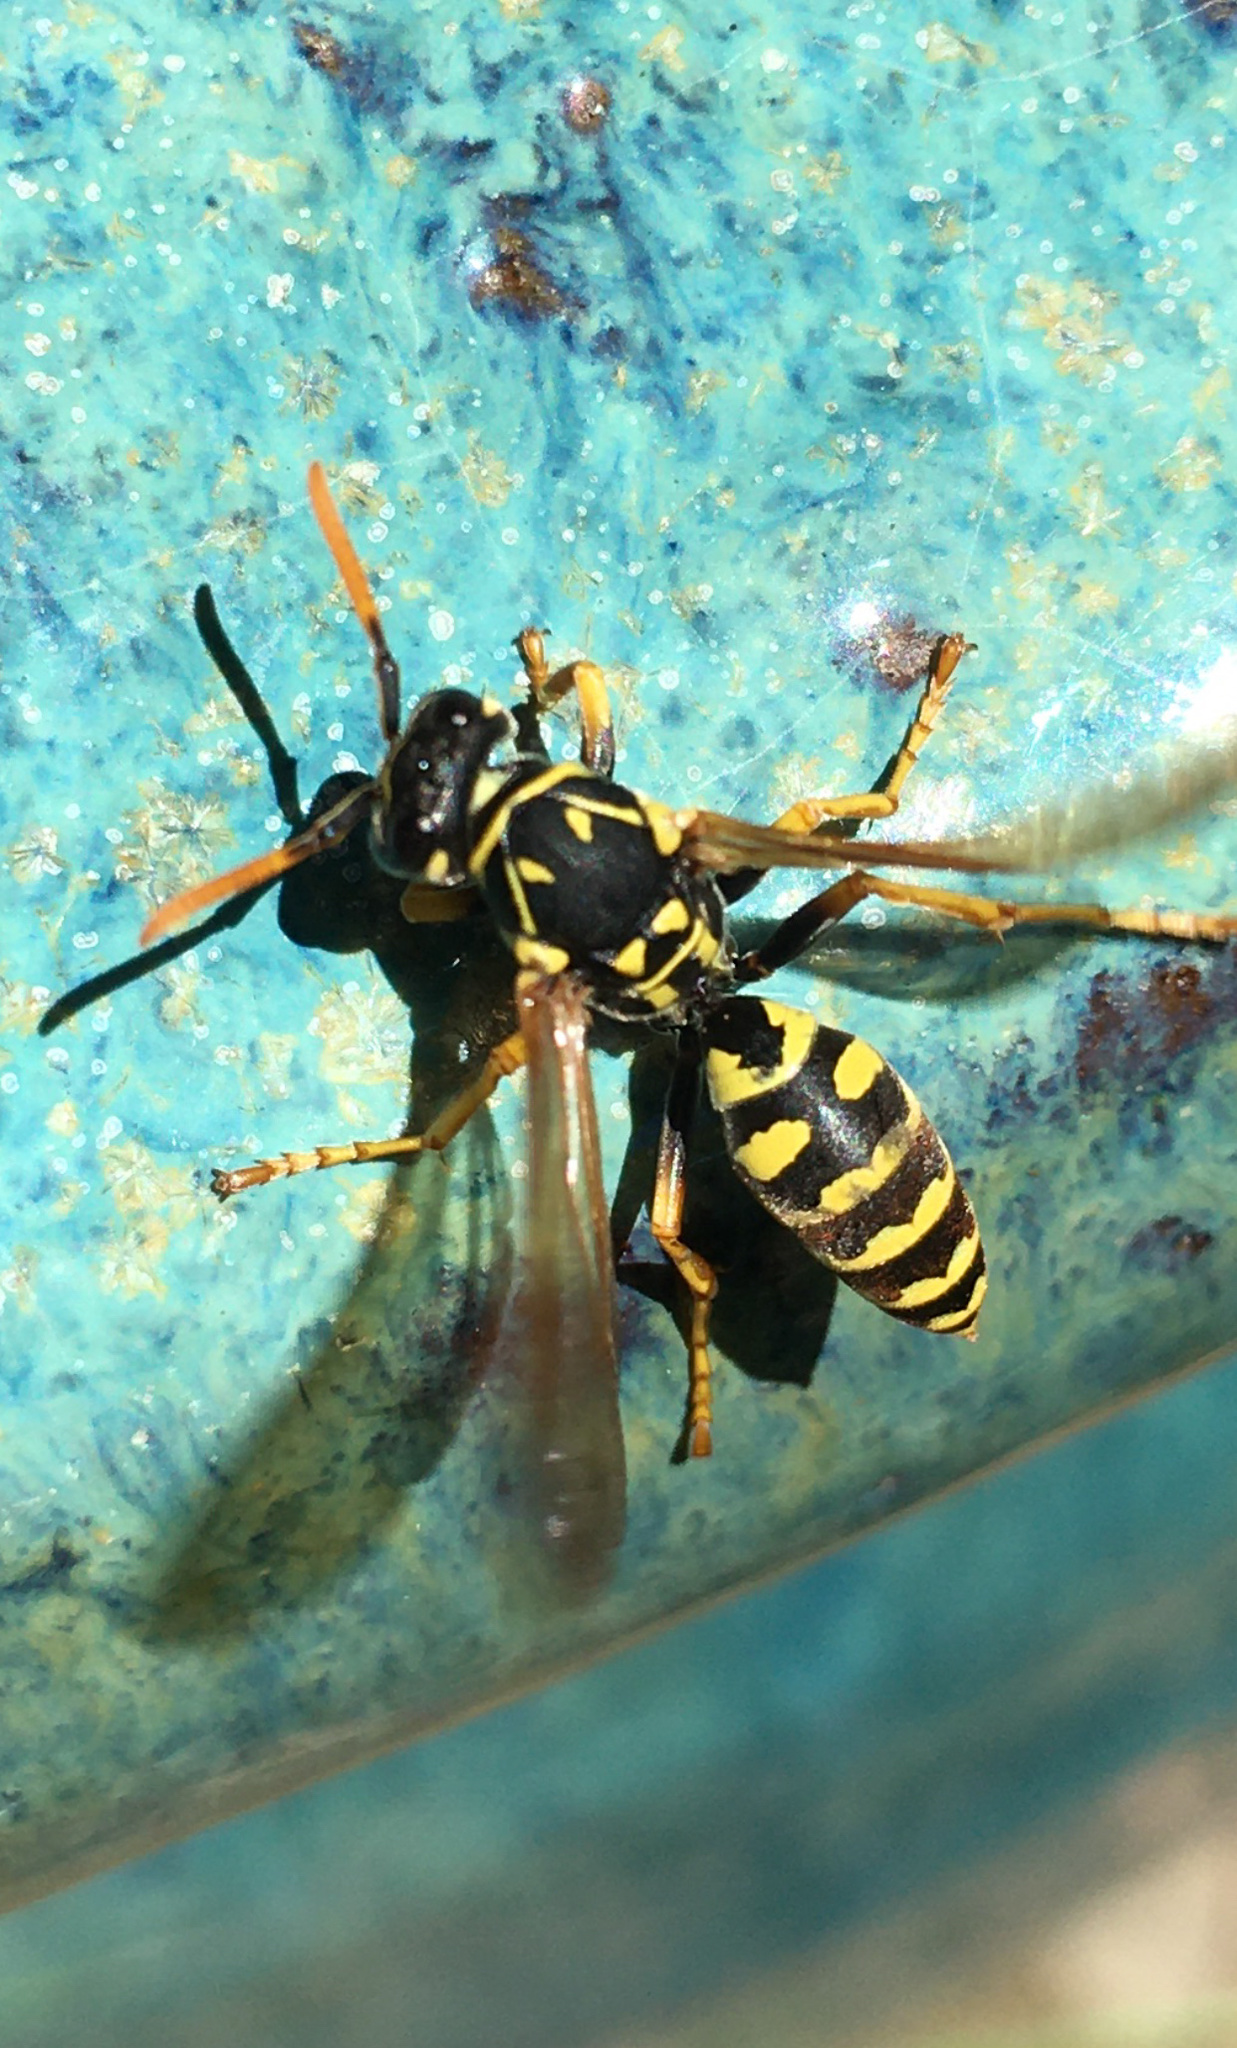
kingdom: Animalia
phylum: Arthropoda
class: Insecta
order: Hymenoptera
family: Eumenidae
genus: Polistes
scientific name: Polistes dominula
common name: Paper wasp
